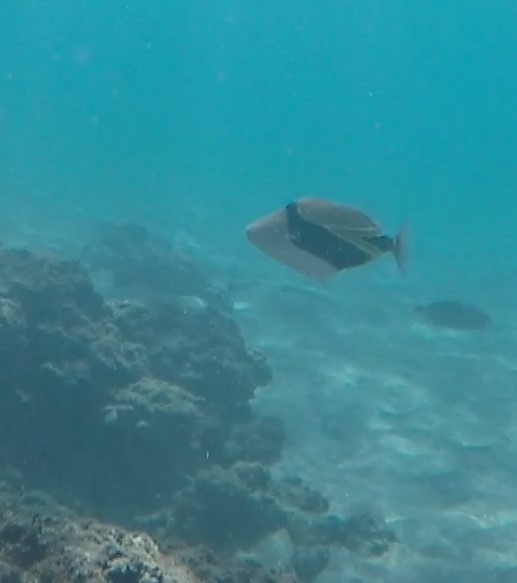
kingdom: Animalia
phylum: Chordata
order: Tetraodontiformes
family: Balistidae
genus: Rhinecanthus
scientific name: Rhinecanthus rectangulus
